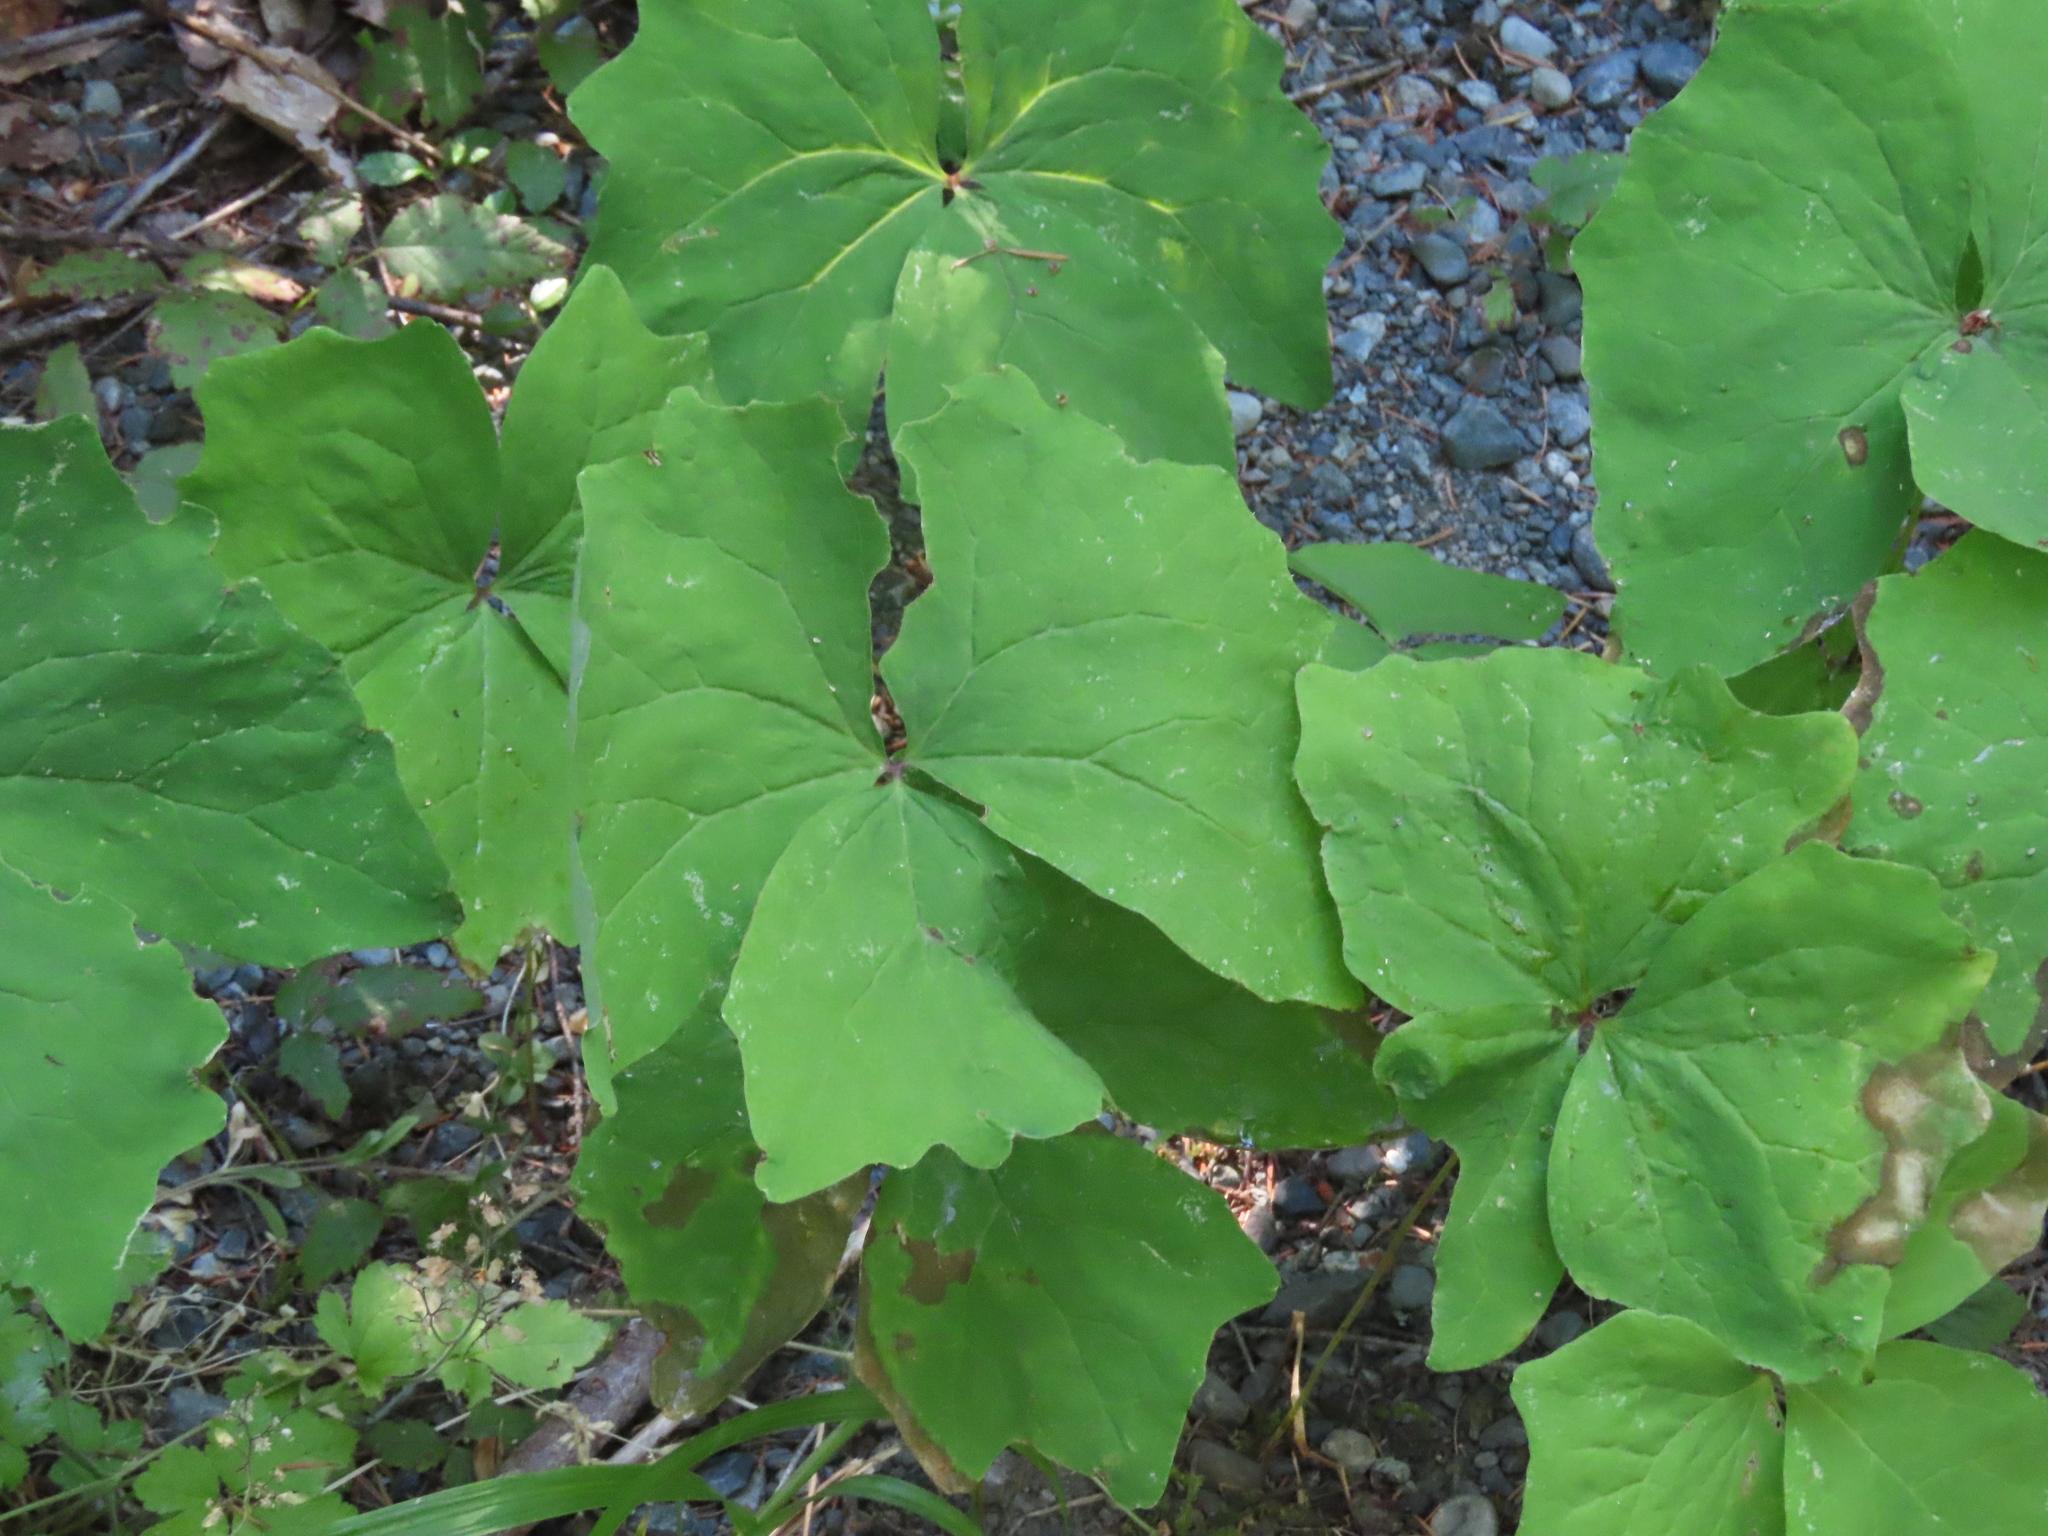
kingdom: Plantae
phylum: Tracheophyta
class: Magnoliopsida
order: Ranunculales
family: Berberidaceae
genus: Achlys
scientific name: Achlys triphylla
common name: Vanilla-leaf
